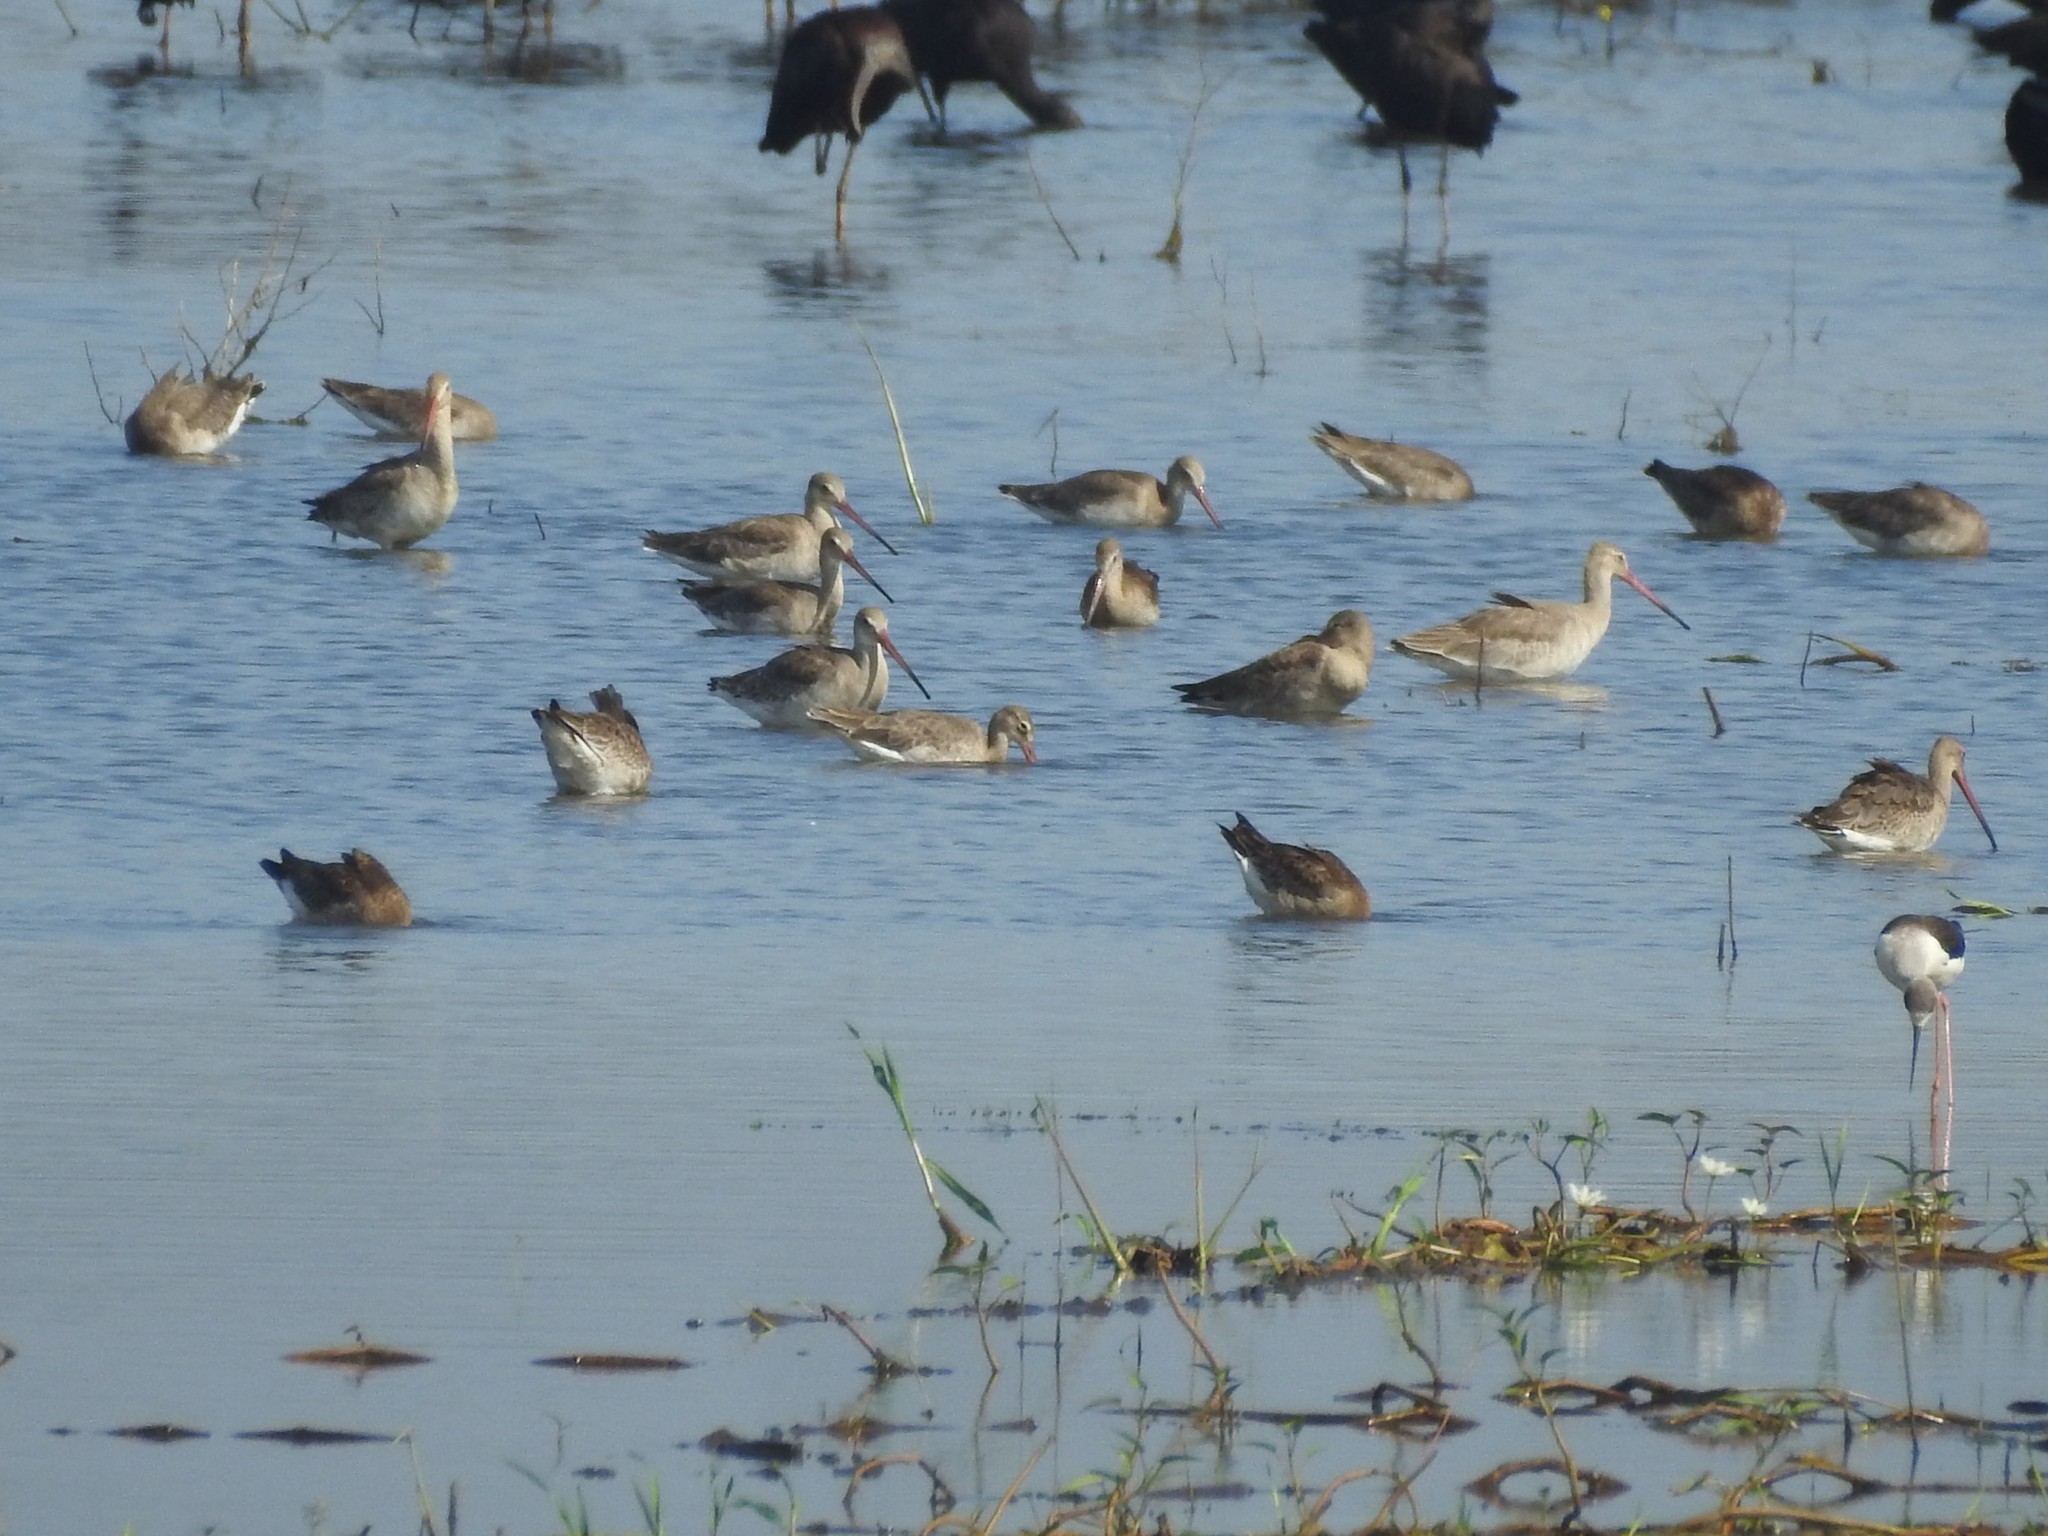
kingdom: Animalia
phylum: Chordata
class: Aves
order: Charadriiformes
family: Scolopacidae
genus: Limosa
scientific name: Limosa limosa
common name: Black-tailed godwit
